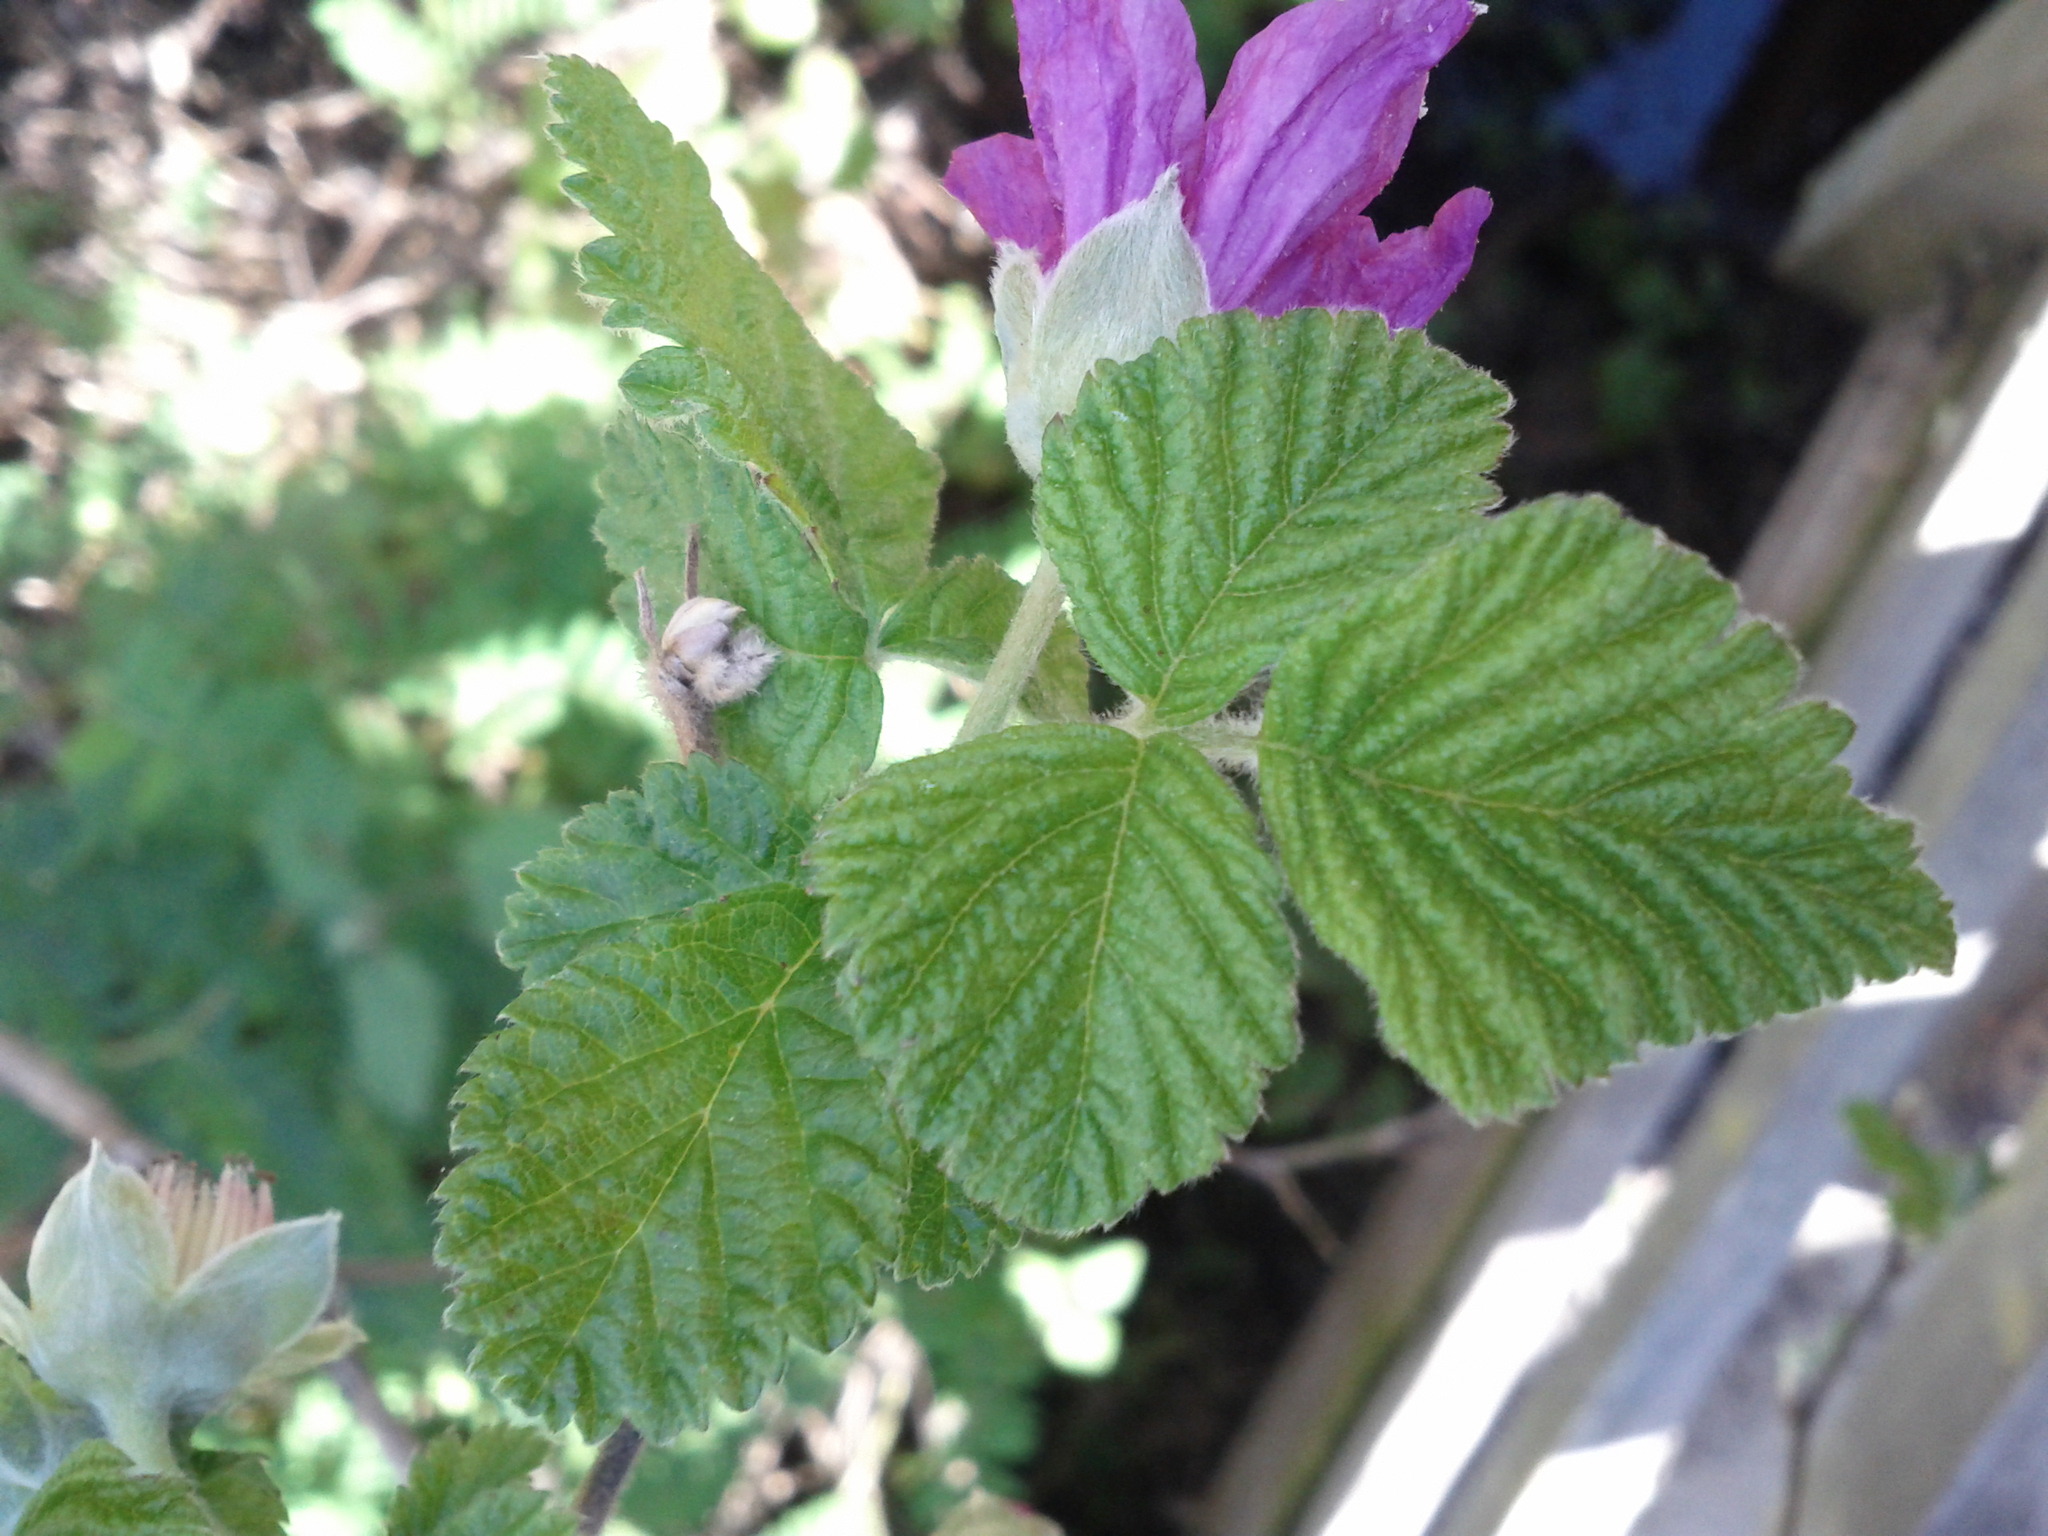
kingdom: Plantae
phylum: Tracheophyta
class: Magnoliopsida
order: Rosales
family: Rosaceae
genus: Rubus
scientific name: Rubus spectabilis
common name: Salmonberry
